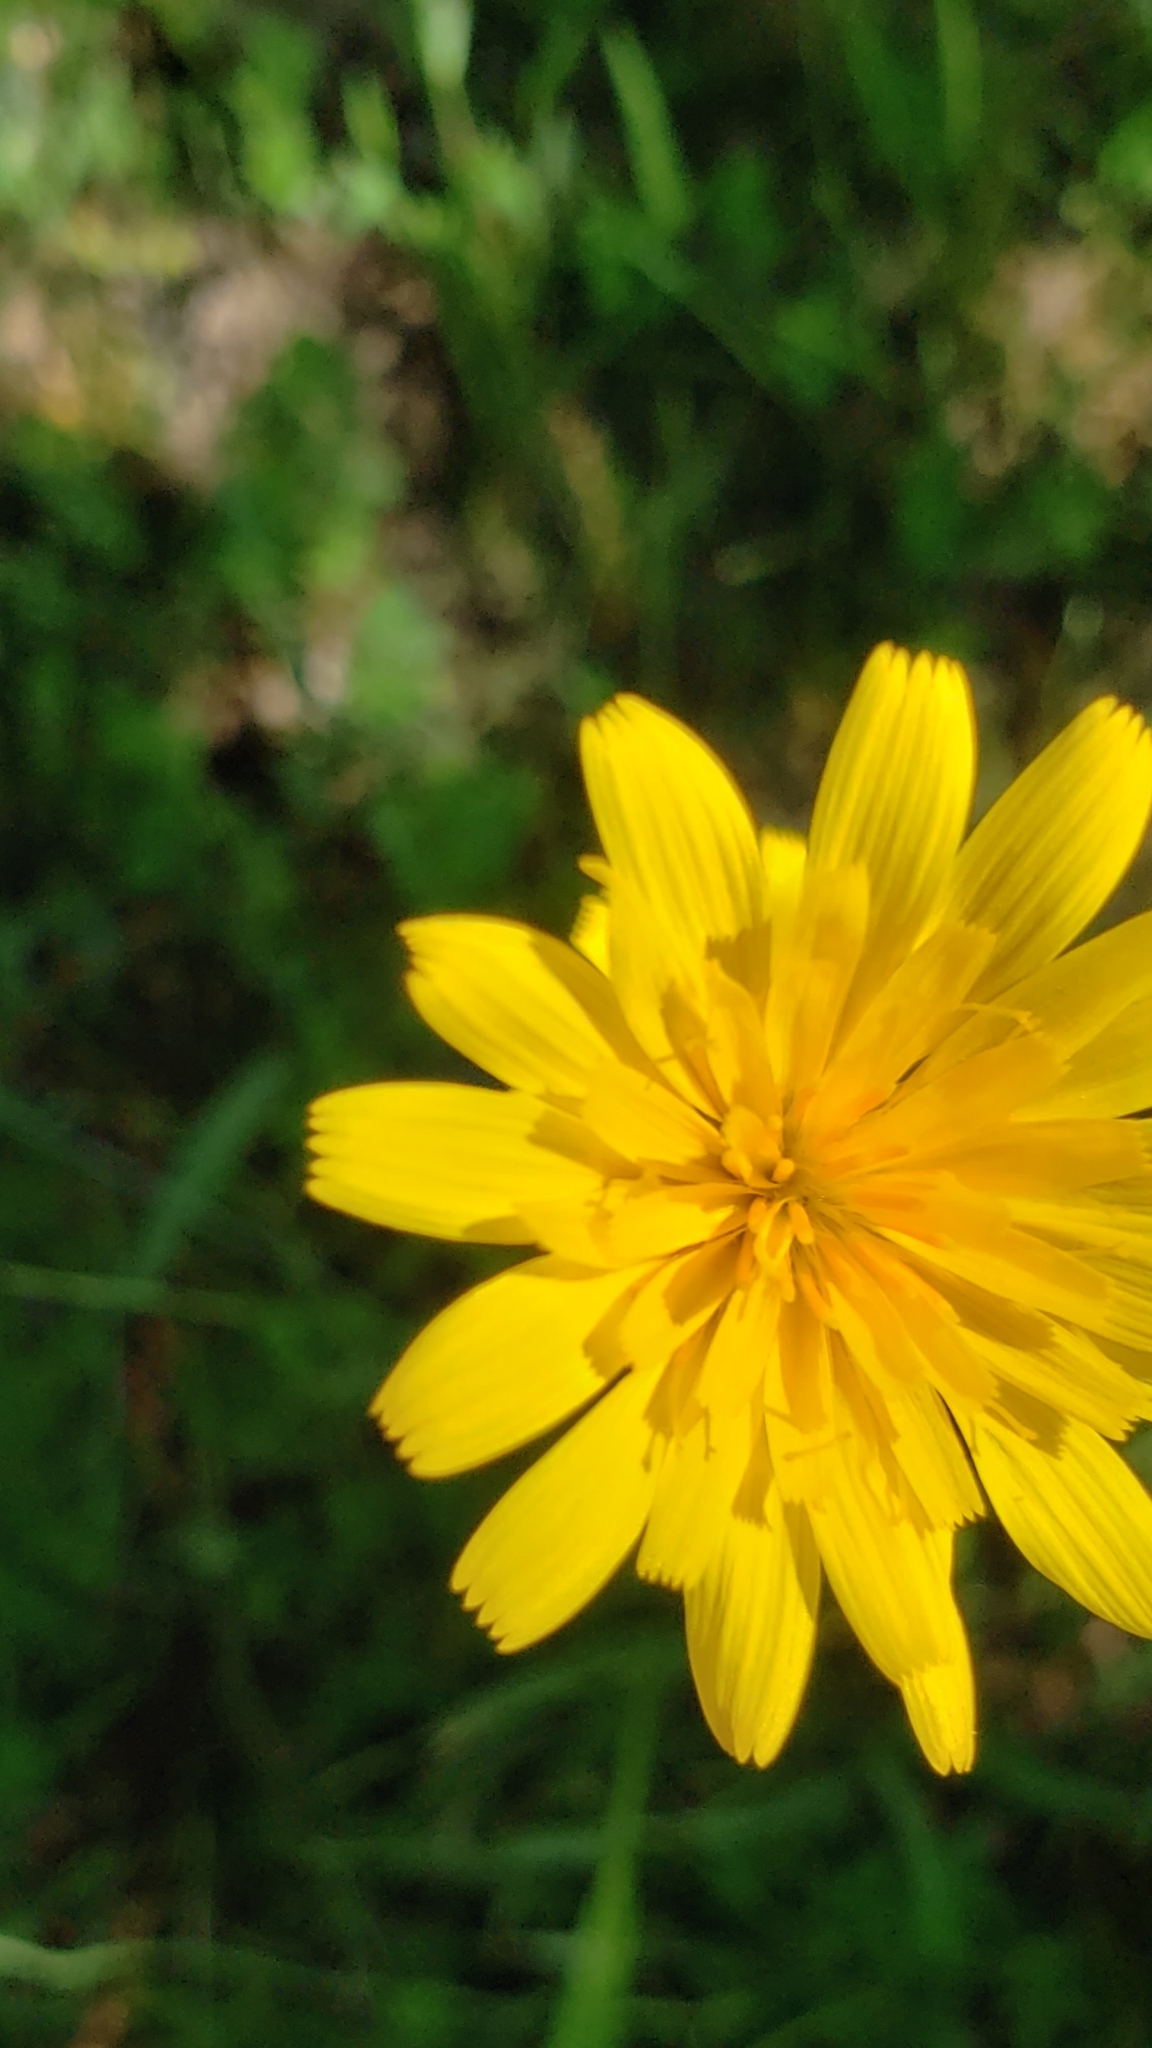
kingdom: Plantae
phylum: Tracheophyta
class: Magnoliopsida
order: Asterales
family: Asteraceae
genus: Krigia
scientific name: Krigia dandelion
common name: Colonial dwarf-dandelion
